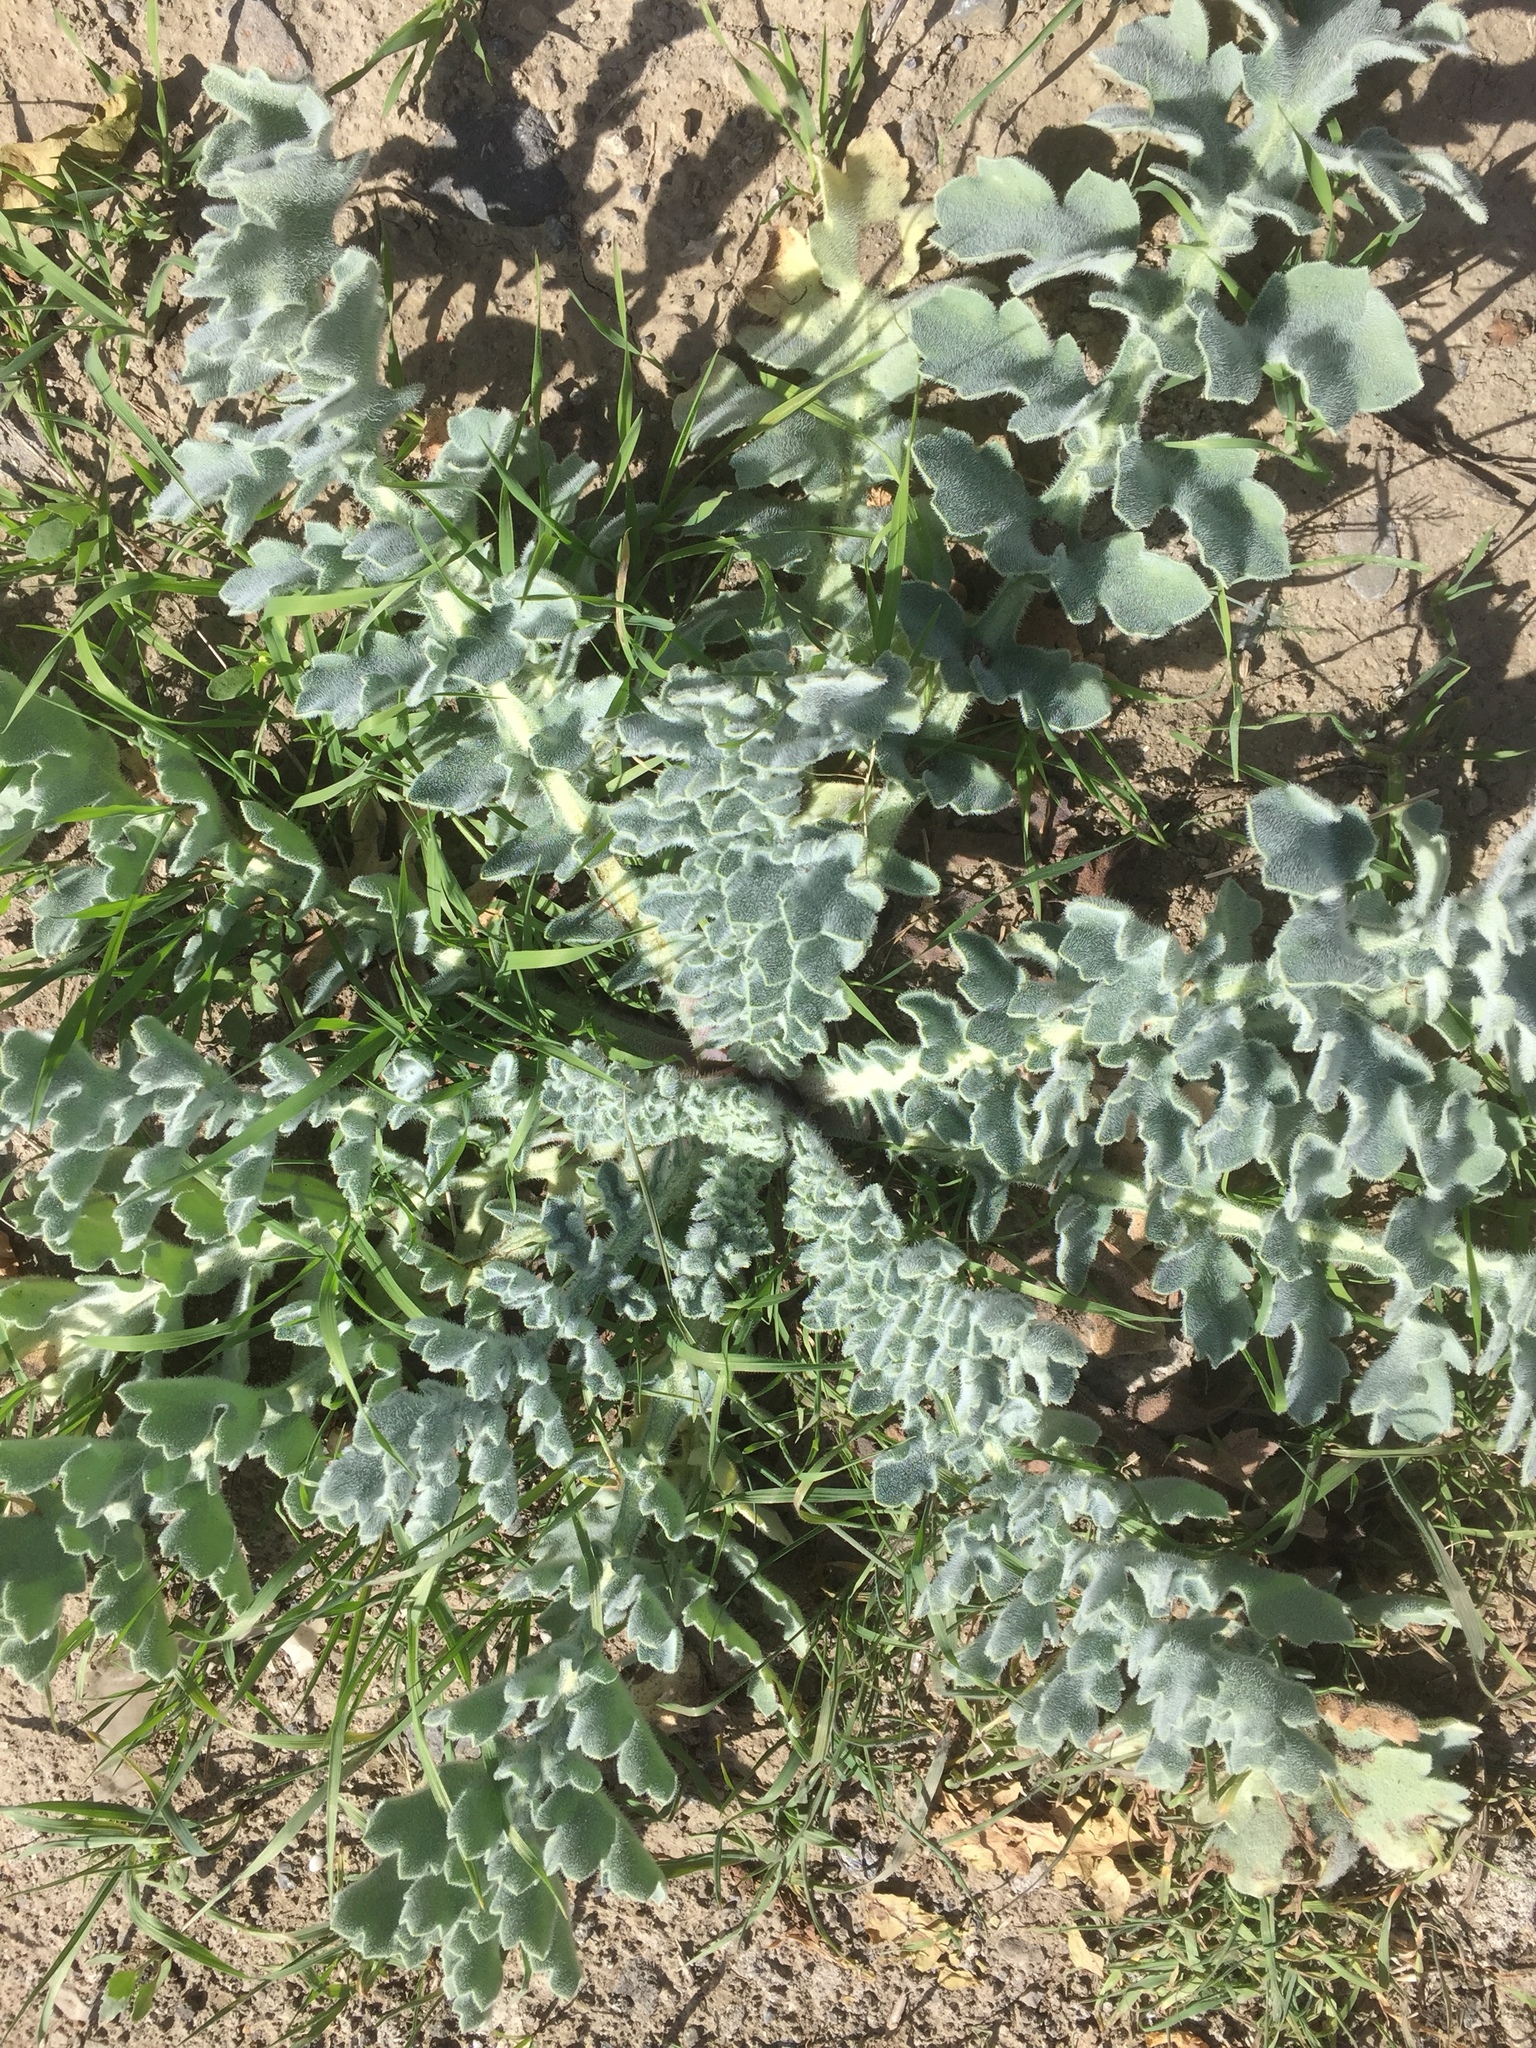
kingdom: Plantae
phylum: Tracheophyta
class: Magnoliopsida
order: Ranunculales
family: Papaveraceae
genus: Glaucium
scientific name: Glaucium flavum
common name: Yellow horned-poppy
